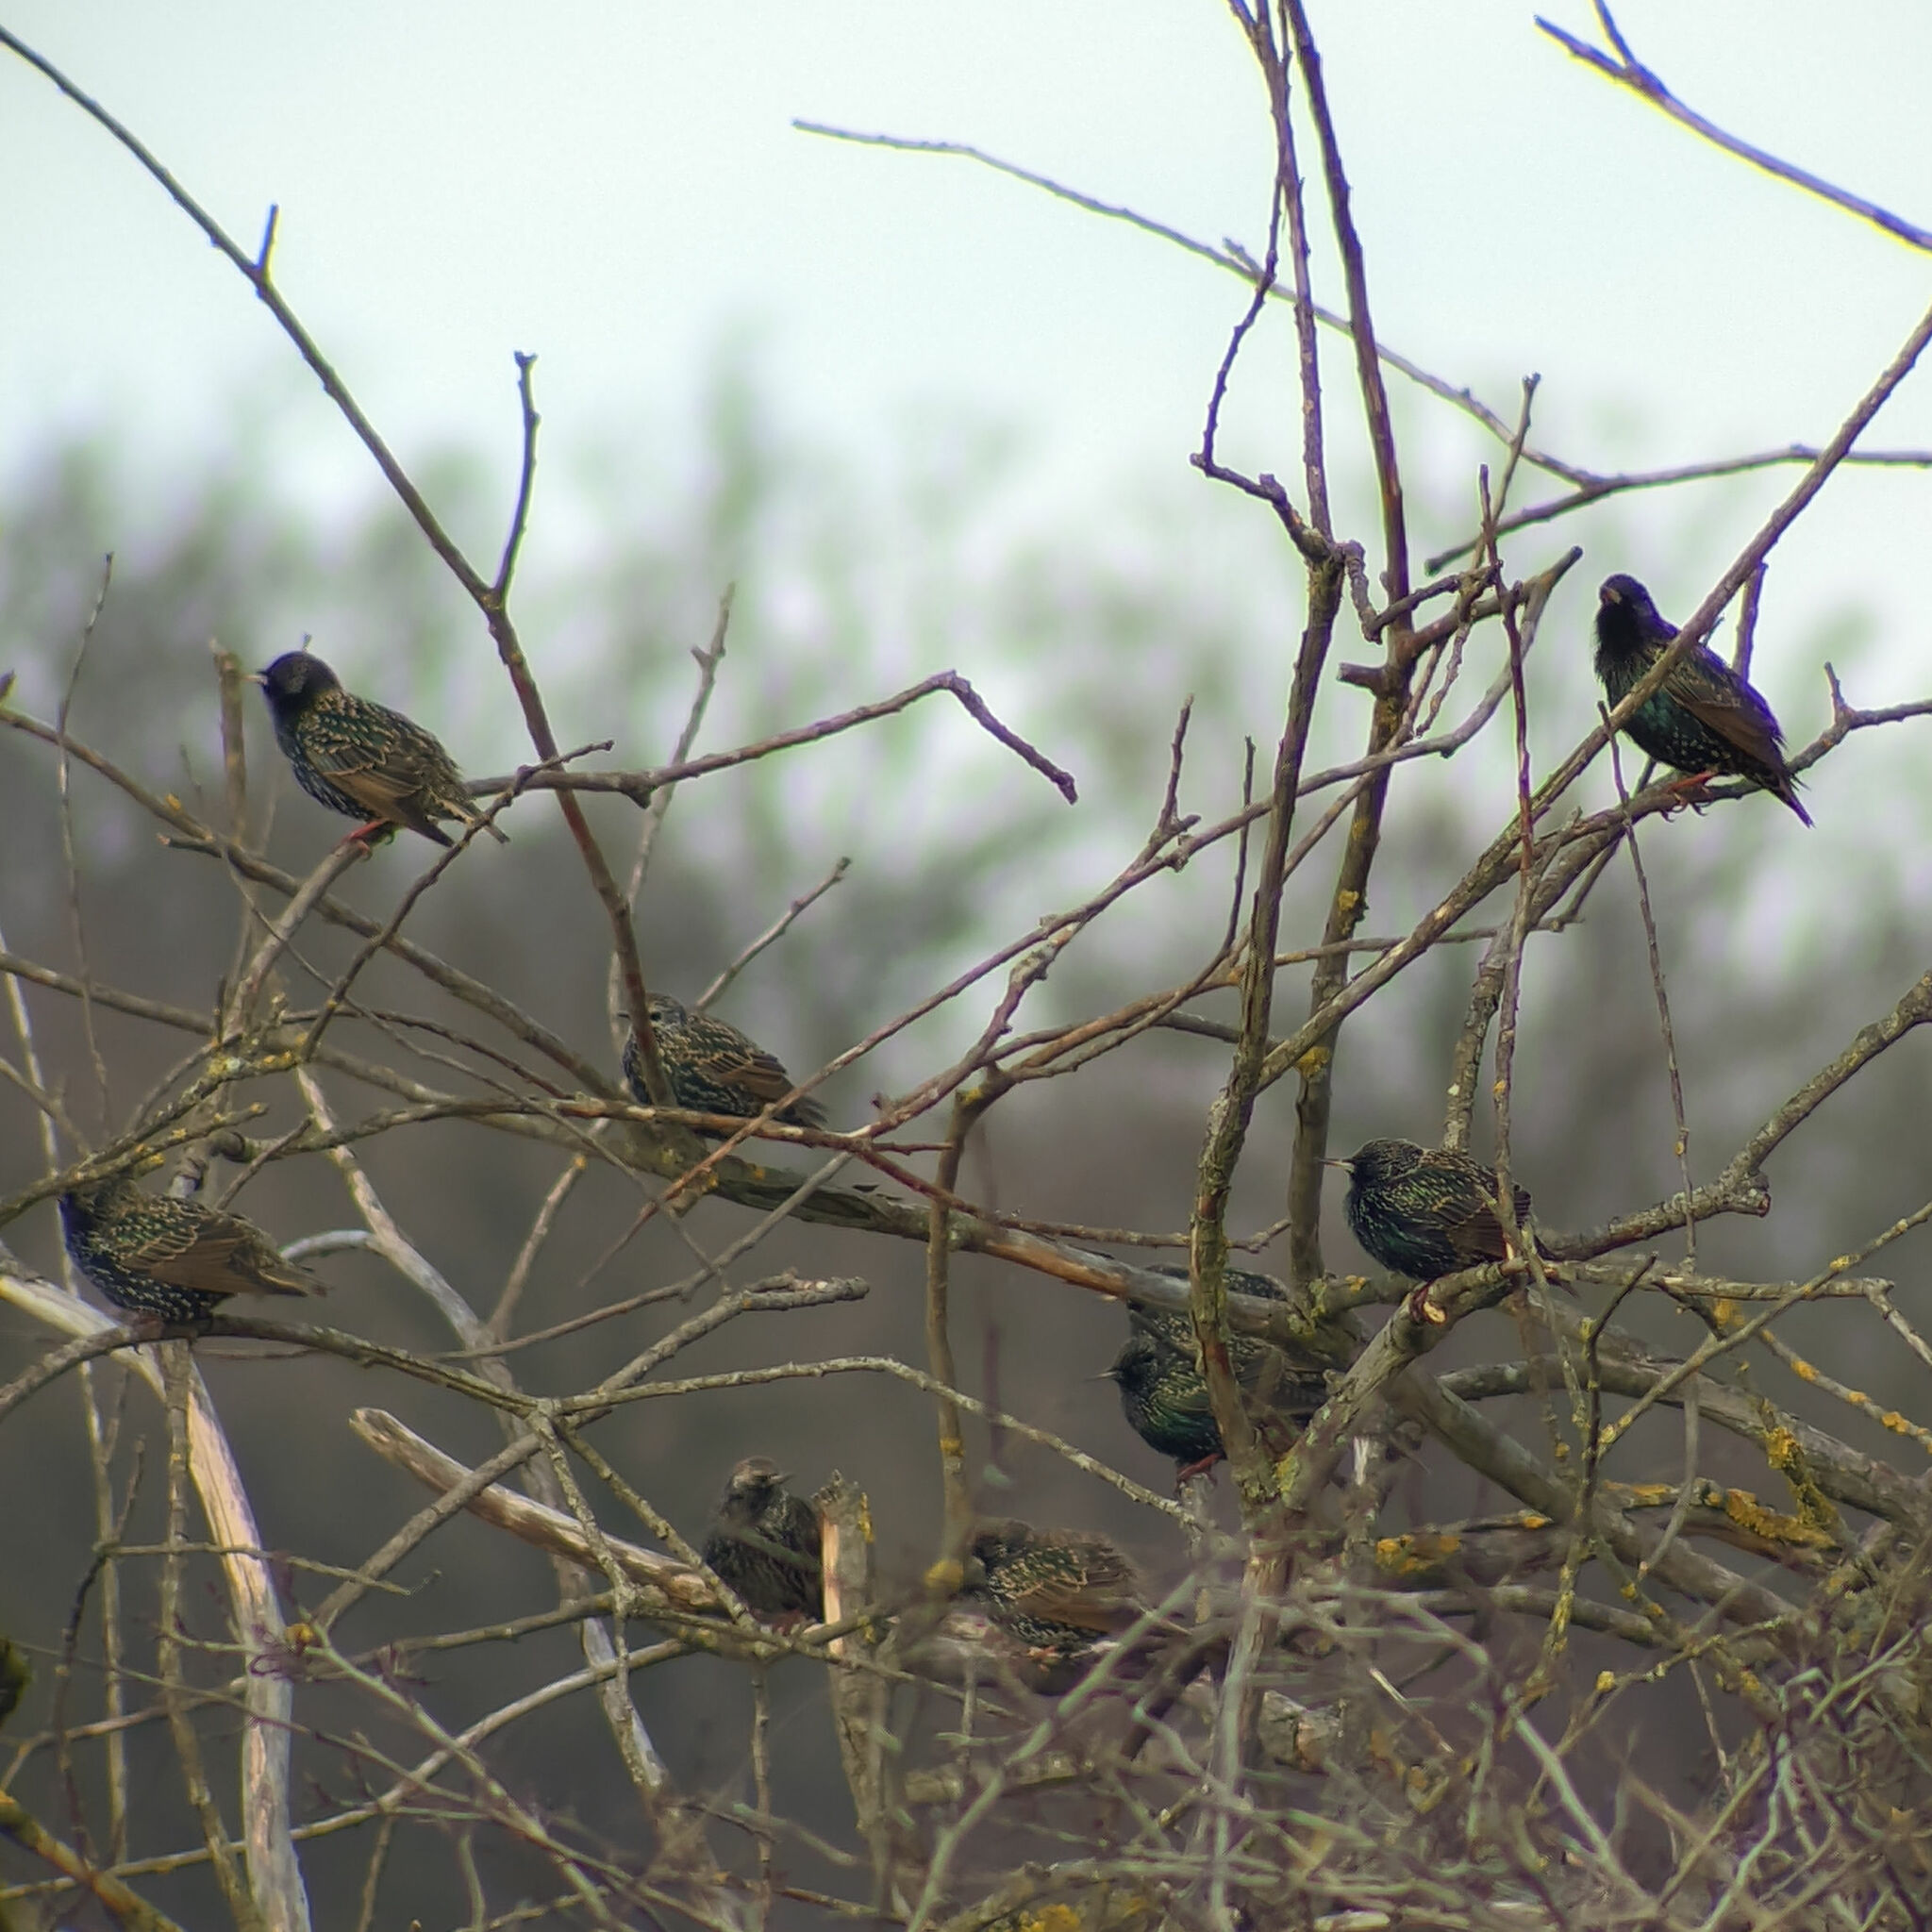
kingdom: Animalia
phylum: Chordata
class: Aves
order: Passeriformes
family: Sturnidae
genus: Sturnus
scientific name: Sturnus vulgaris
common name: Common starling
